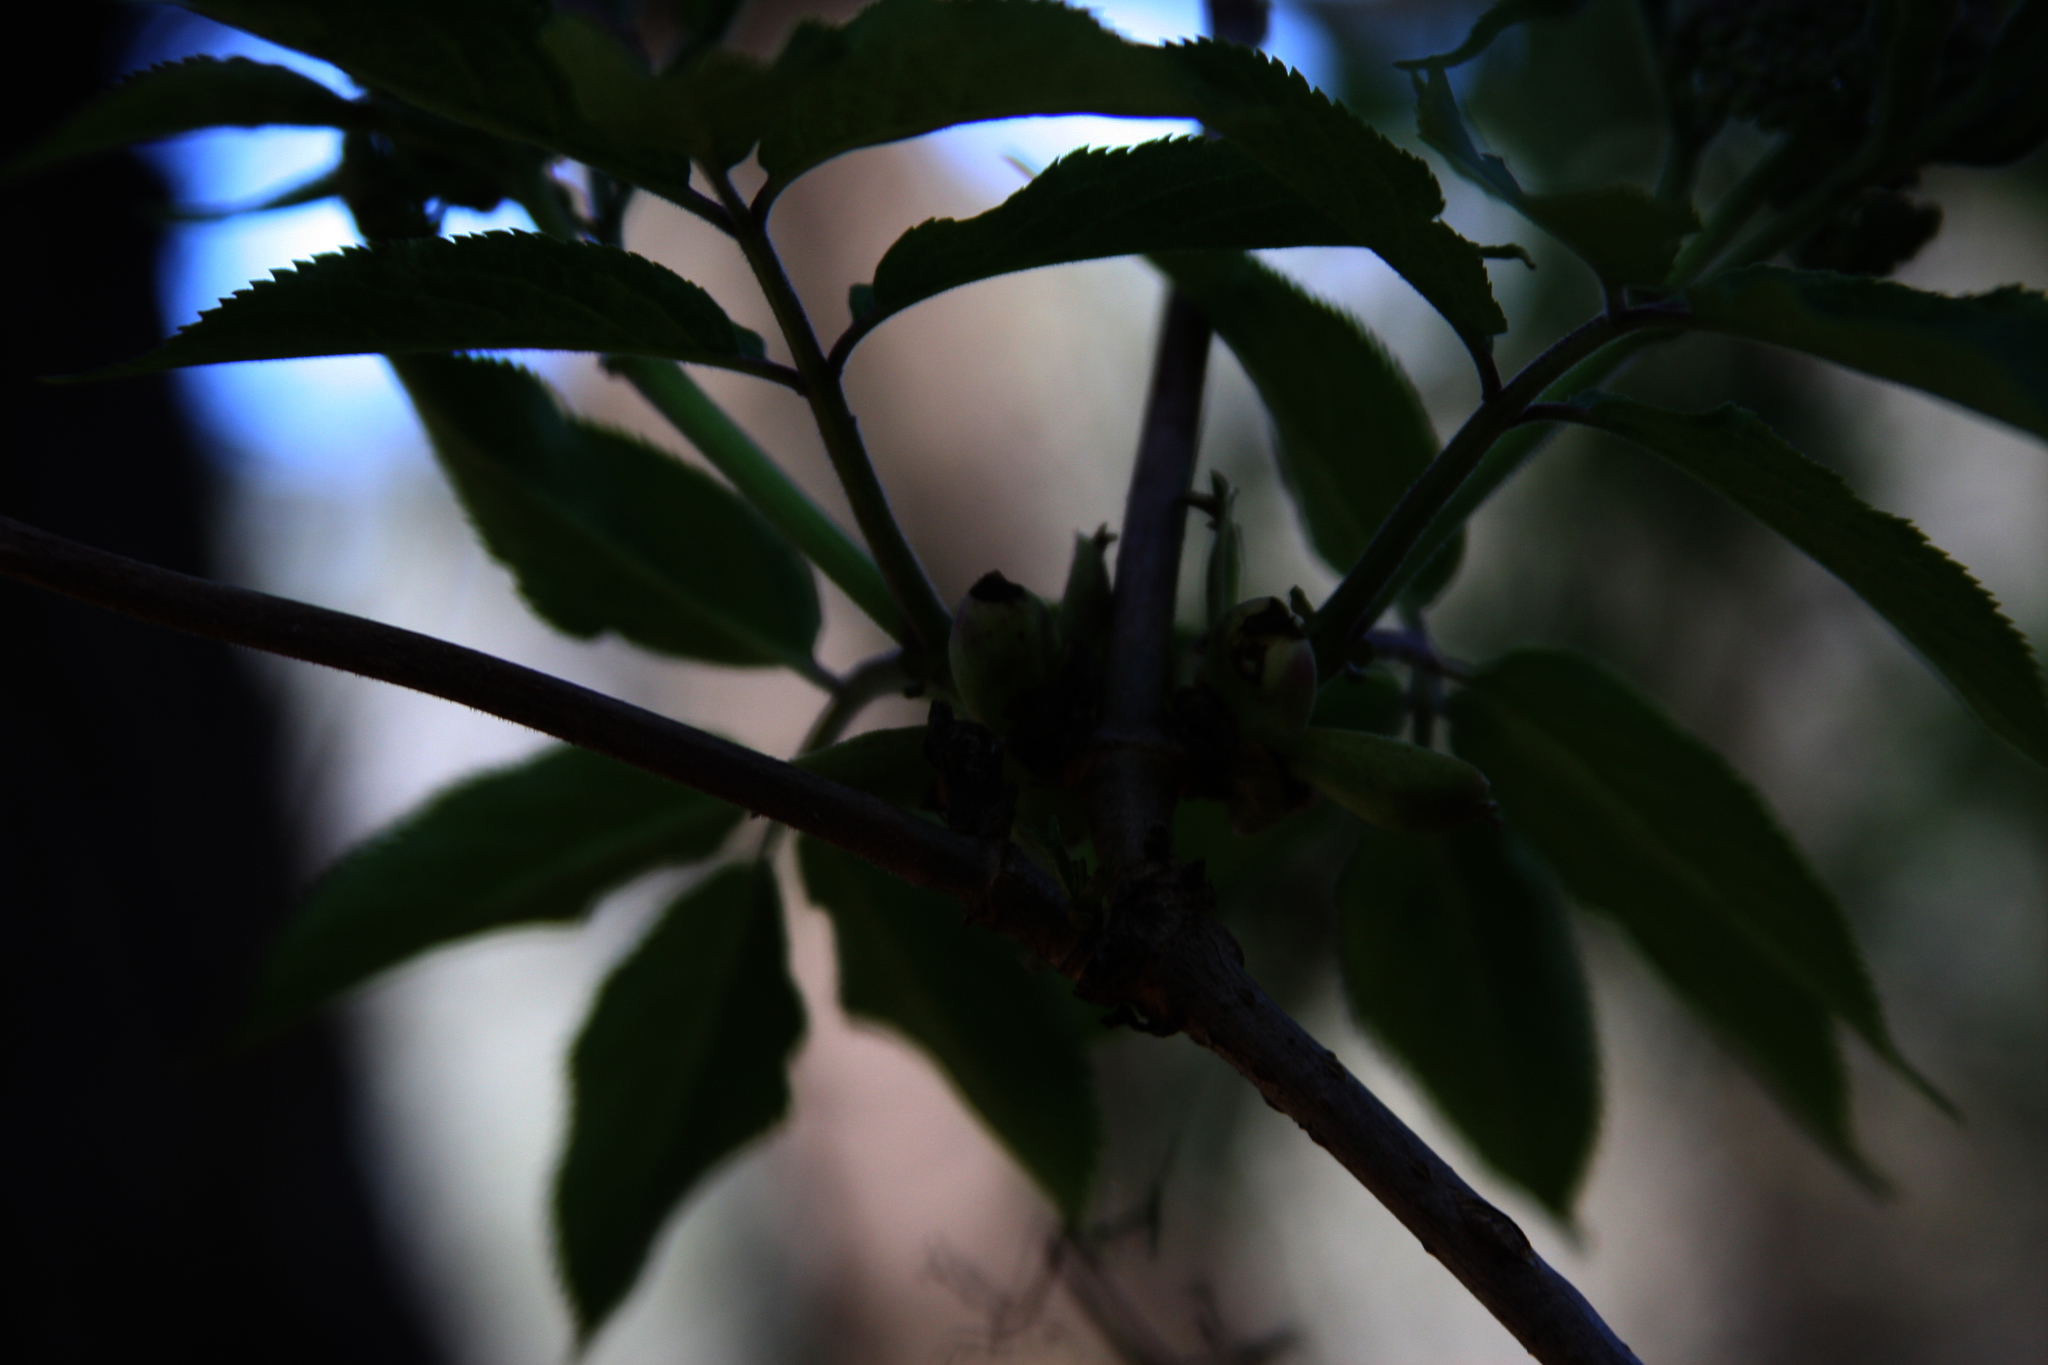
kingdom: Plantae
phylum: Tracheophyta
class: Magnoliopsida
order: Dipsacales
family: Viburnaceae
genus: Sambucus
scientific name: Sambucus racemosa
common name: Red-berried elder
